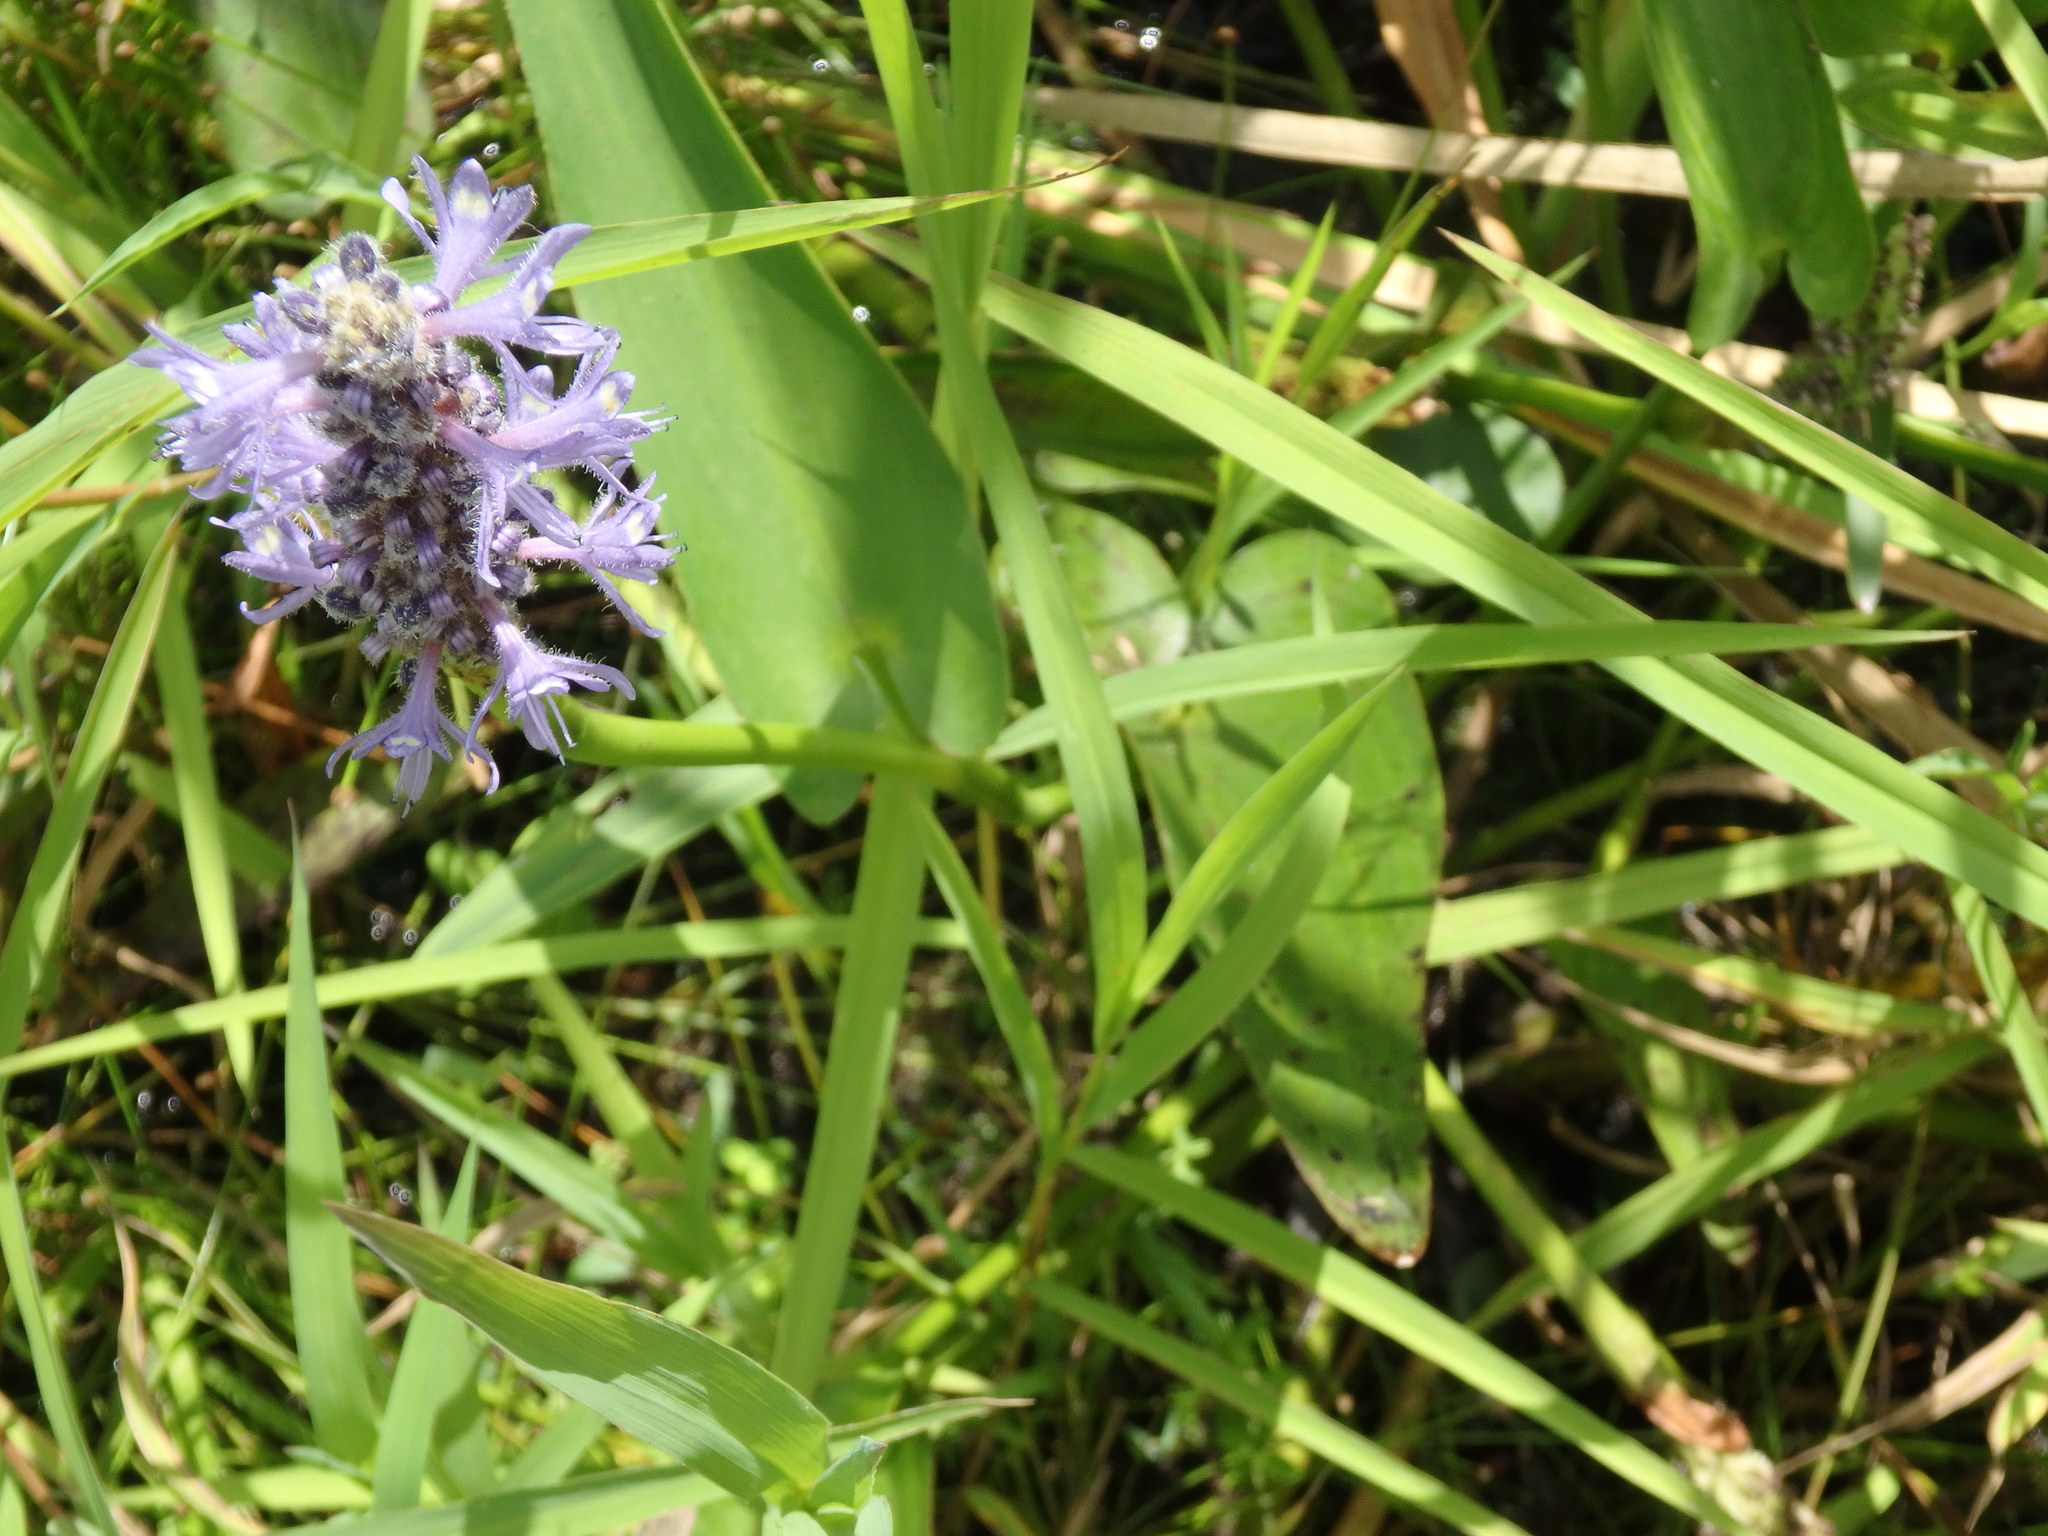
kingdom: Plantae
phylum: Tracheophyta
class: Liliopsida
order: Commelinales
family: Pontederiaceae
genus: Pontederia
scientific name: Pontederia cordata
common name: Pickerelweed
